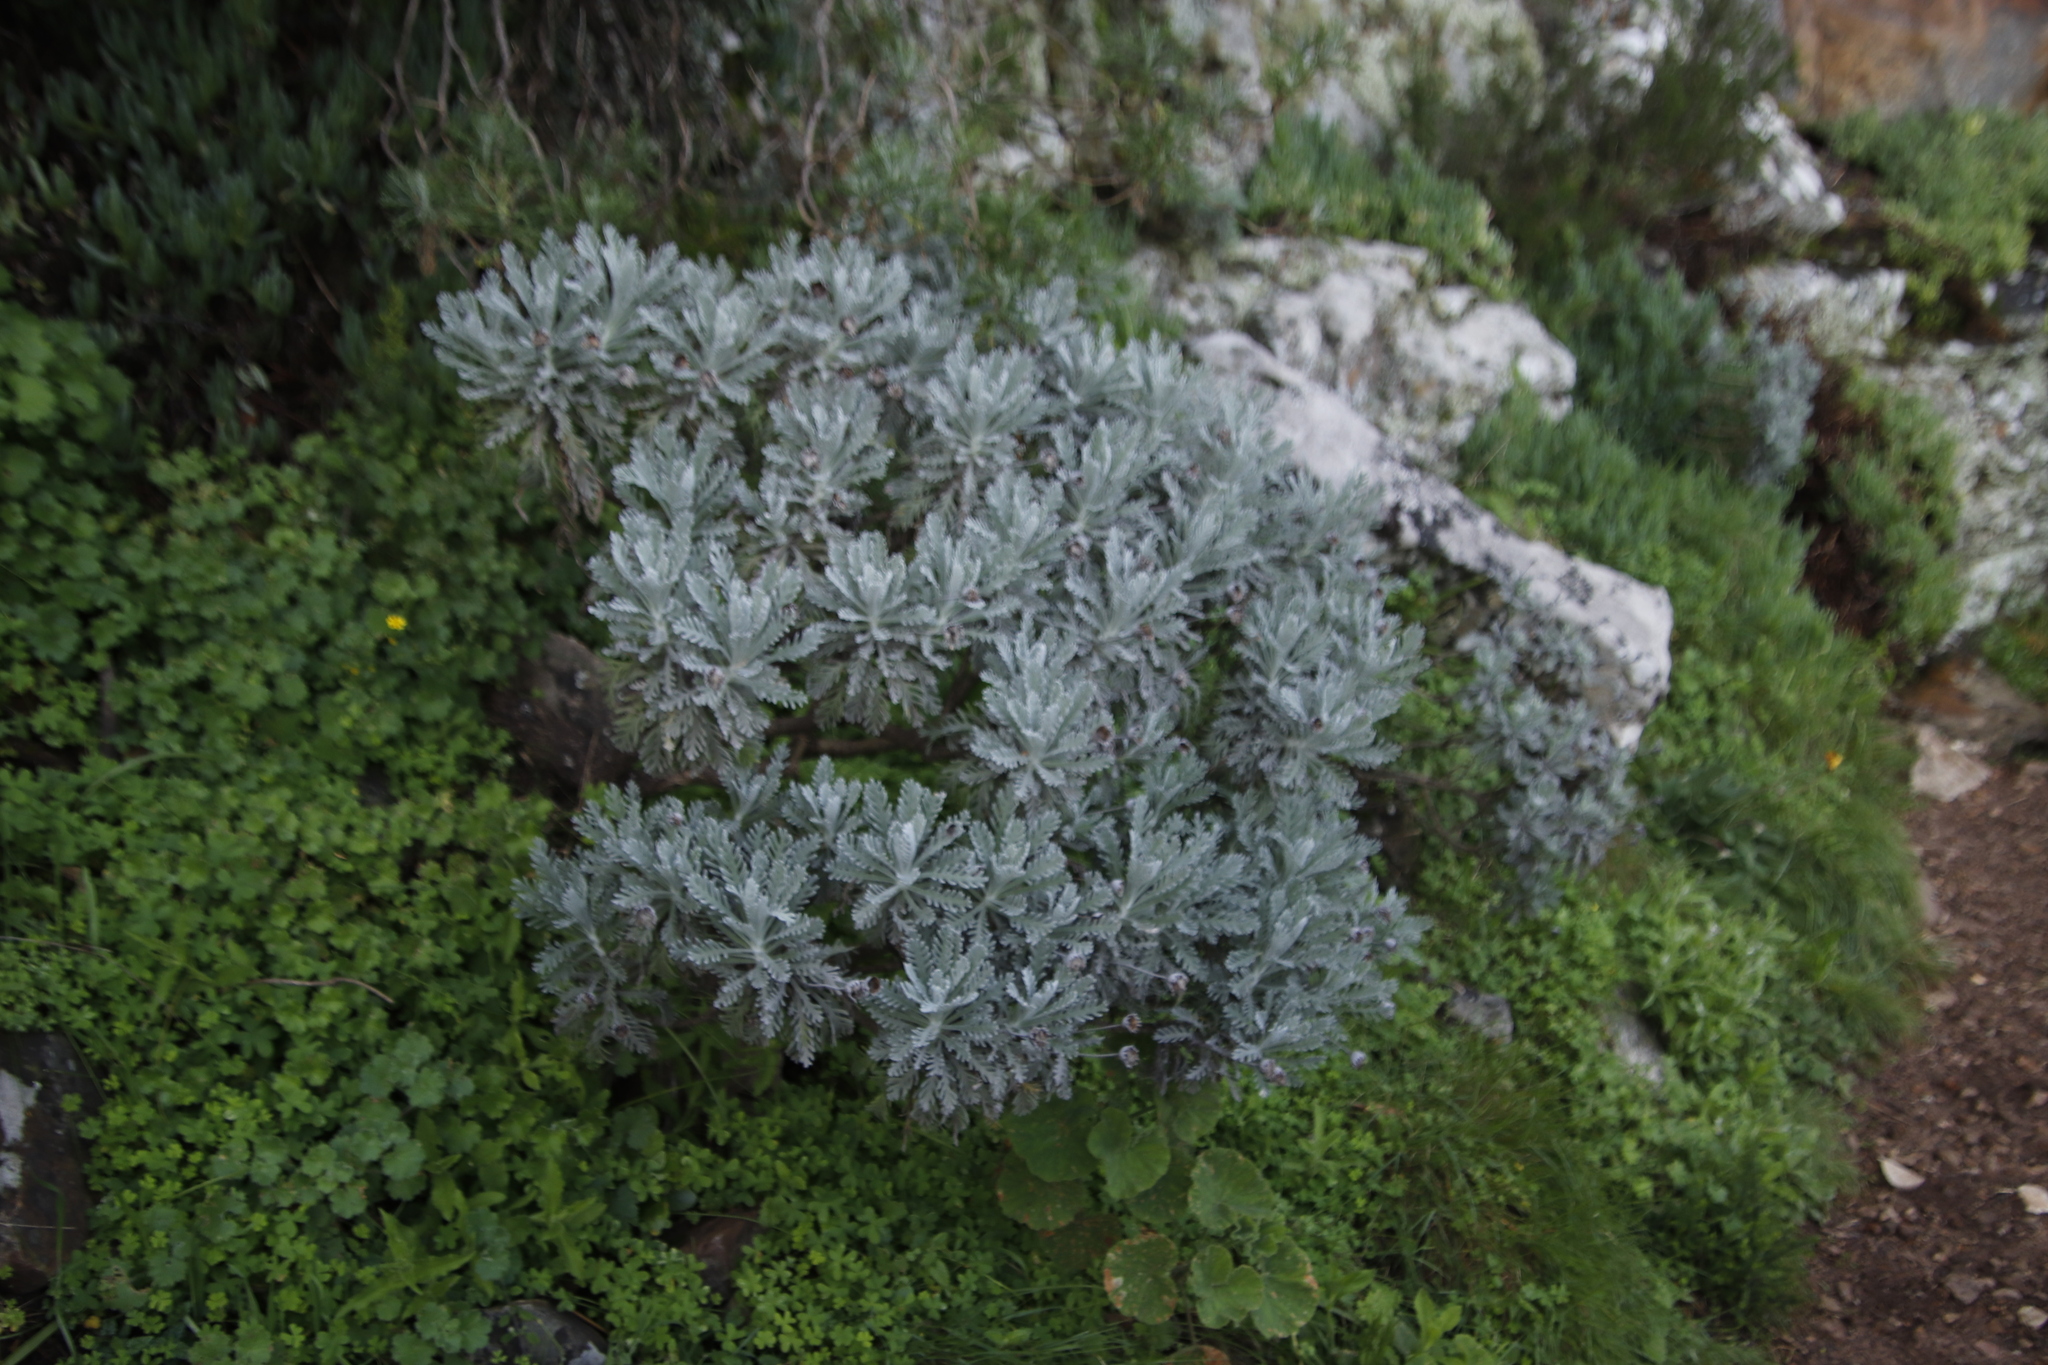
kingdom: Plantae
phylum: Tracheophyta
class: Magnoliopsida
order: Asterales
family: Asteraceae
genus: Euryops
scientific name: Euryops pectinatus
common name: Gray-leaf euryops
